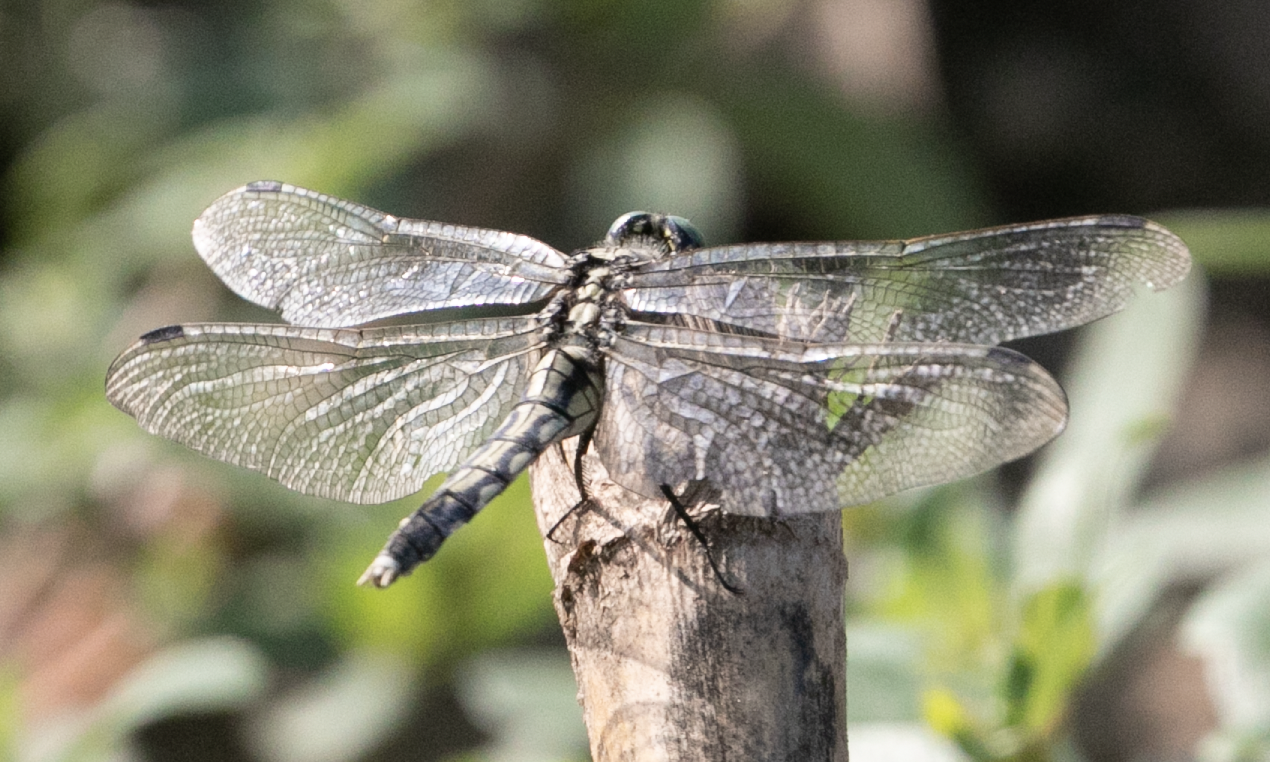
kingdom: Animalia
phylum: Arthropoda
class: Insecta
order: Odonata
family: Libellulidae
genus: Orthetrum
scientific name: Orthetrum albistylum
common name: White-tailed skimmer
